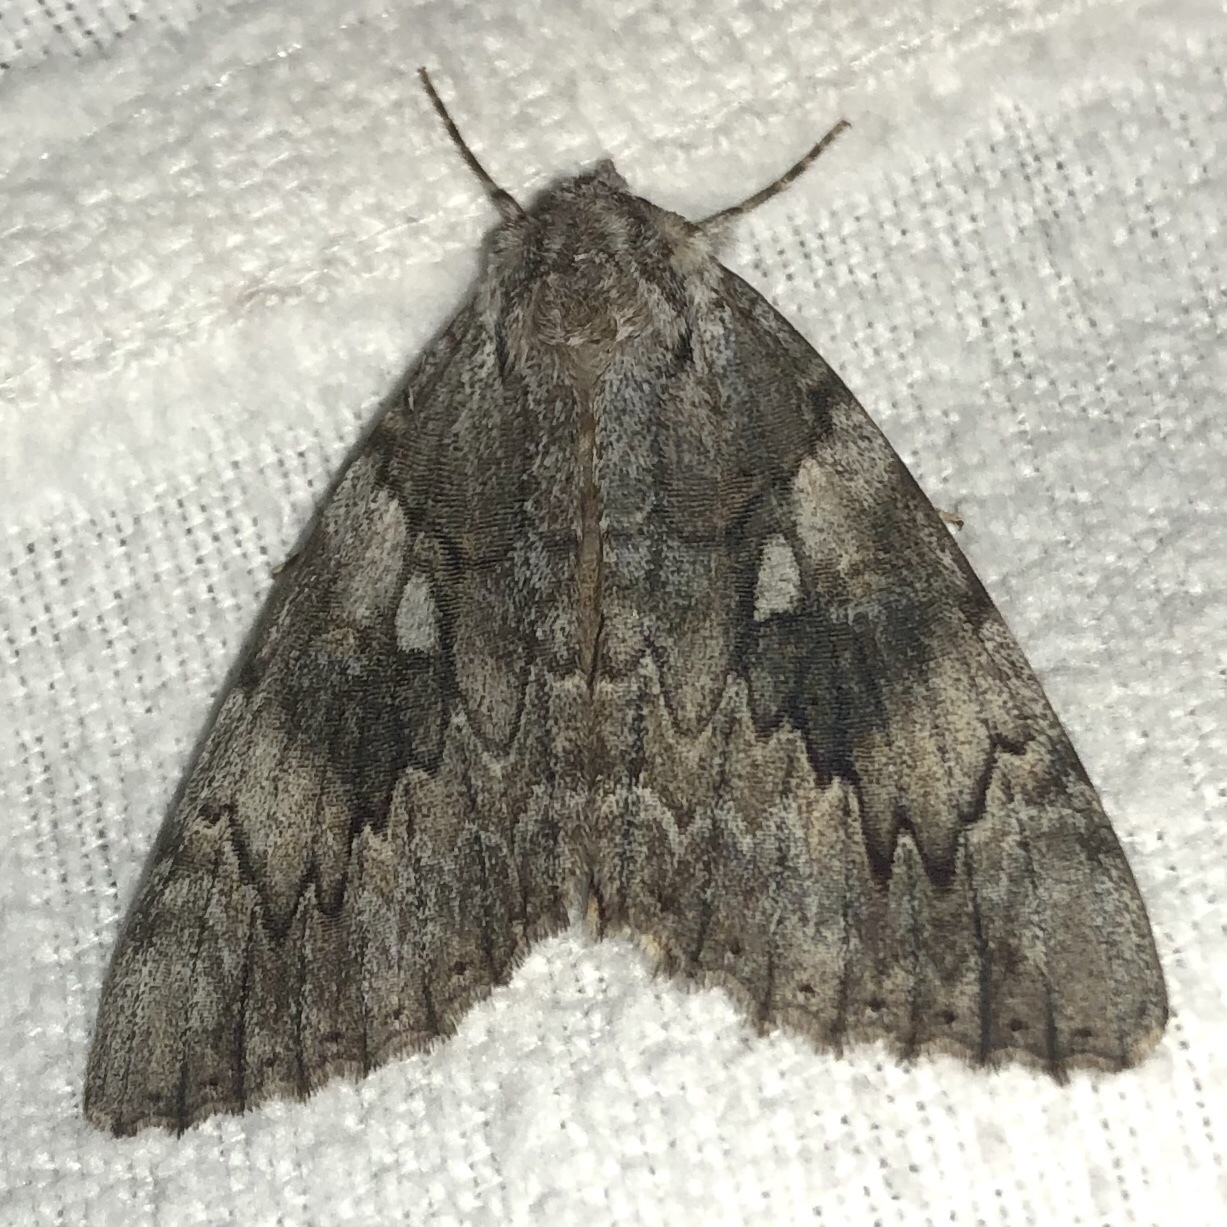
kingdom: Animalia
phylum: Arthropoda
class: Insecta
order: Lepidoptera
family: Erebidae
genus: Catocala
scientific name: Catocala cerogama
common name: Yellow banded underwing
